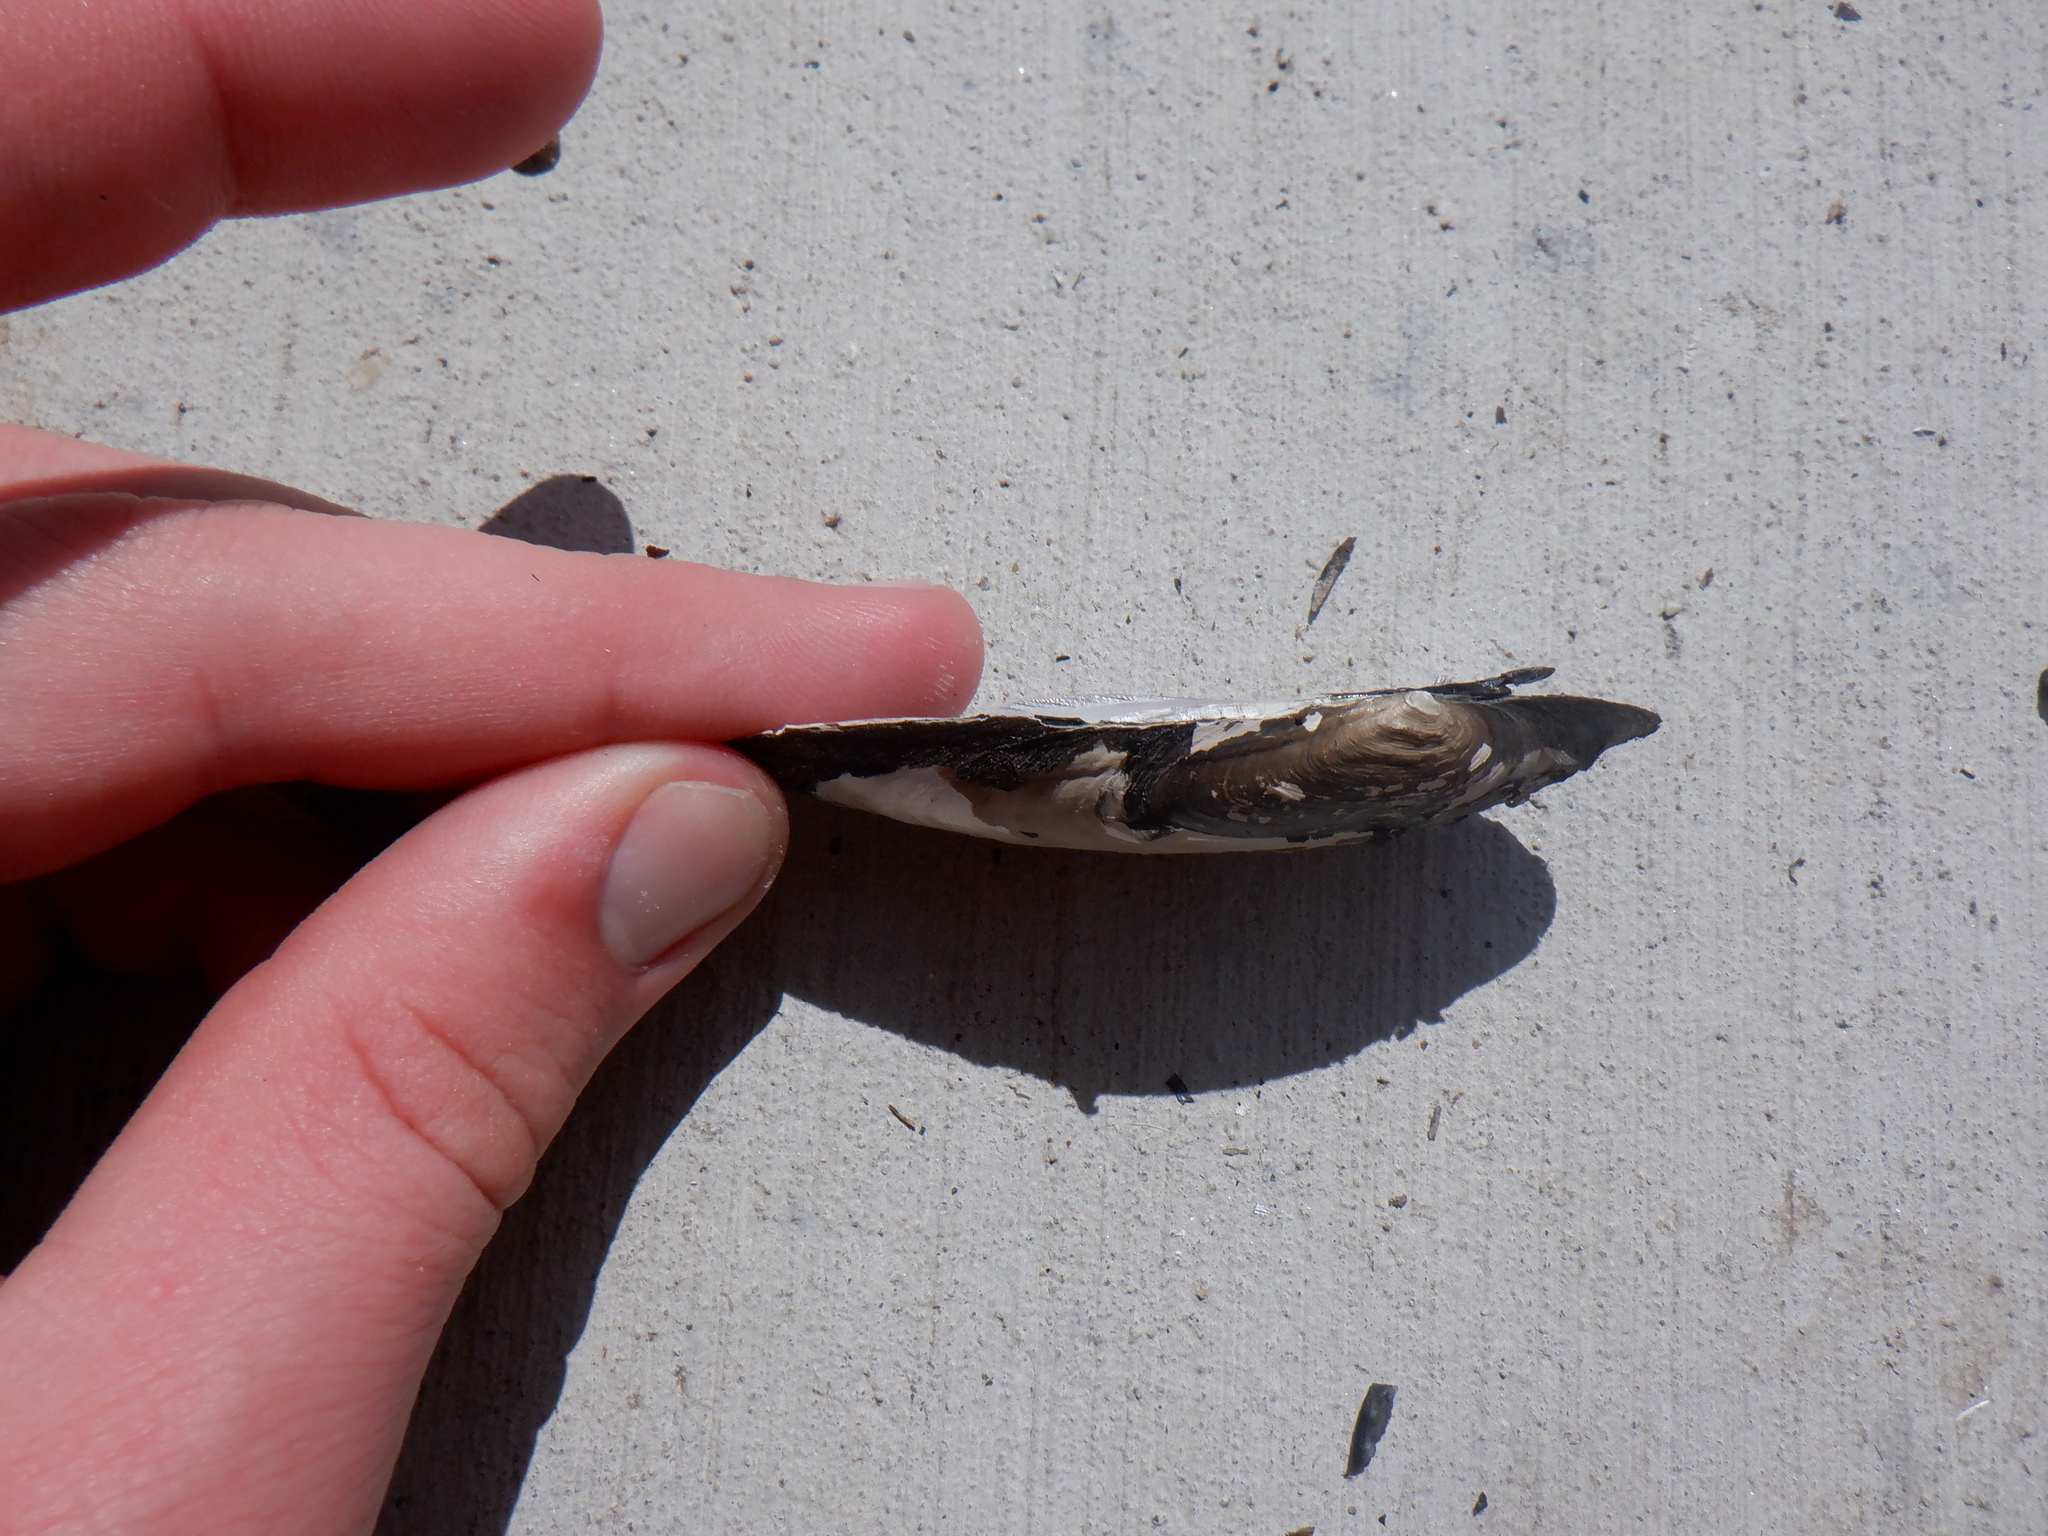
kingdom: Animalia
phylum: Mollusca
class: Bivalvia
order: Unionida
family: Unionidae
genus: Eurynia
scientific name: Eurynia dilatata
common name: Spike
